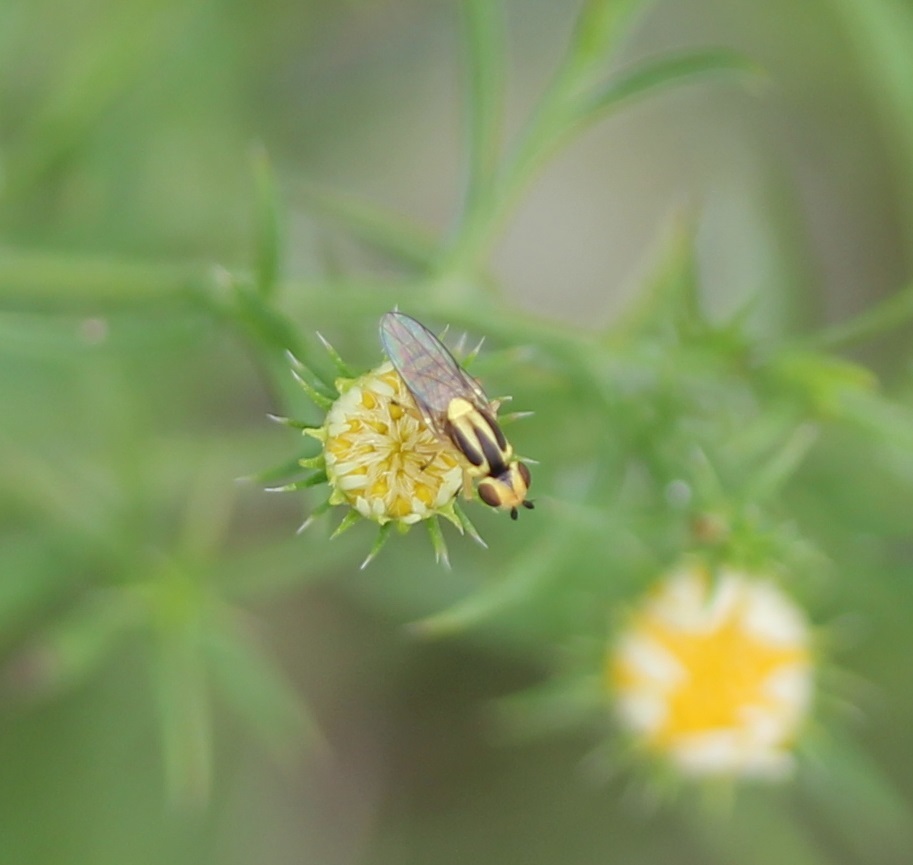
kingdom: Animalia
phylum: Arthropoda
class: Insecta
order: Diptera
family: Chloropidae
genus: Chlorops
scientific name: Chlorops sulphureus
